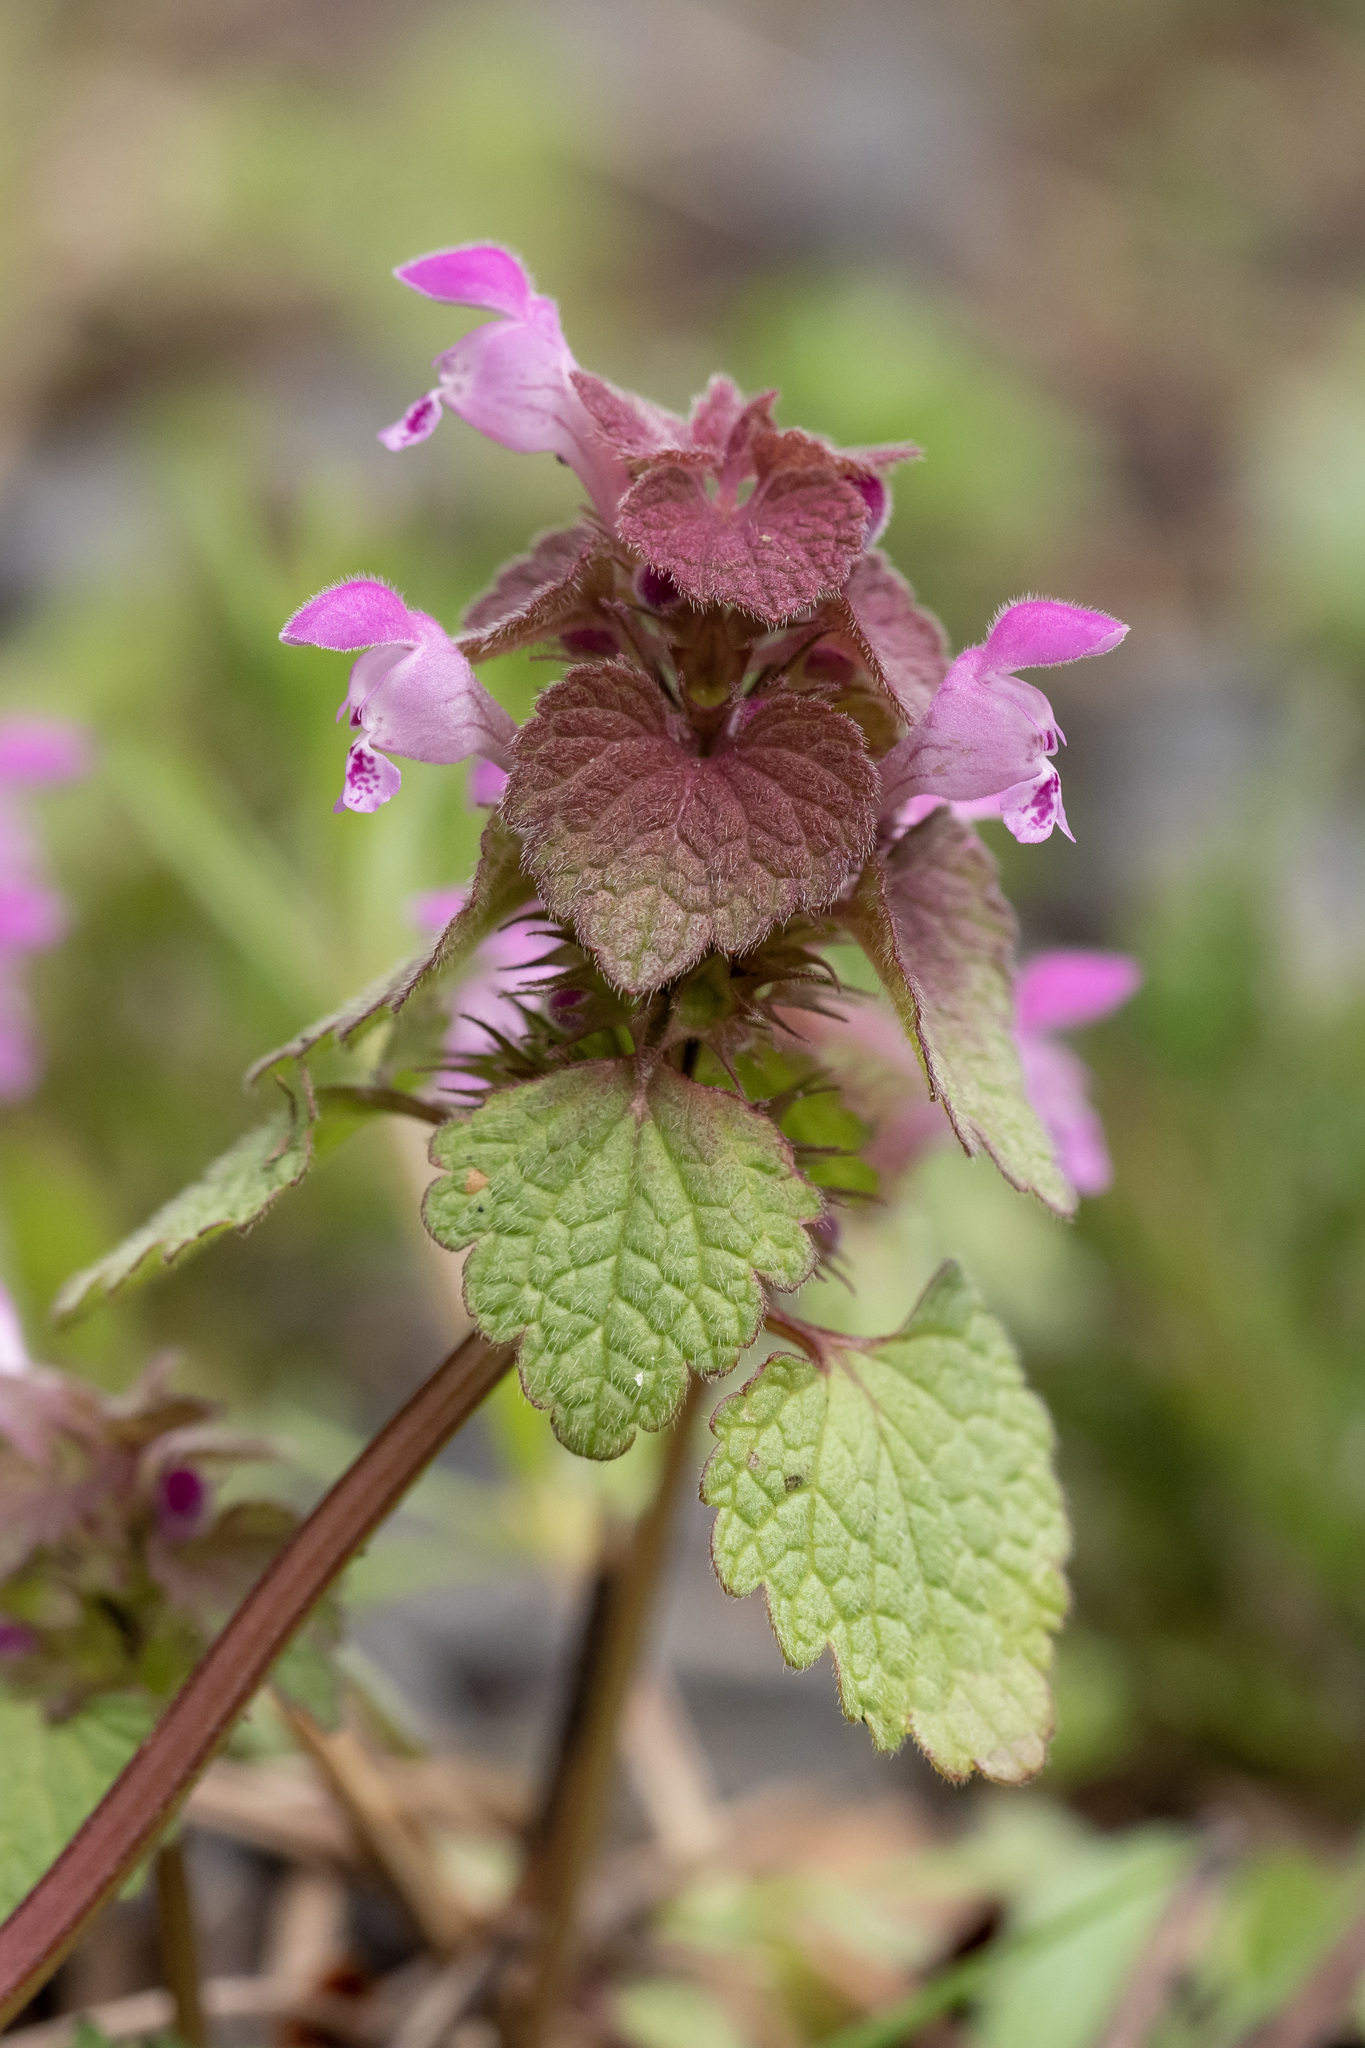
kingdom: Plantae
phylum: Tracheophyta
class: Magnoliopsida
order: Lamiales
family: Lamiaceae
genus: Lamium
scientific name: Lamium purpureum
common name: Red dead-nettle
